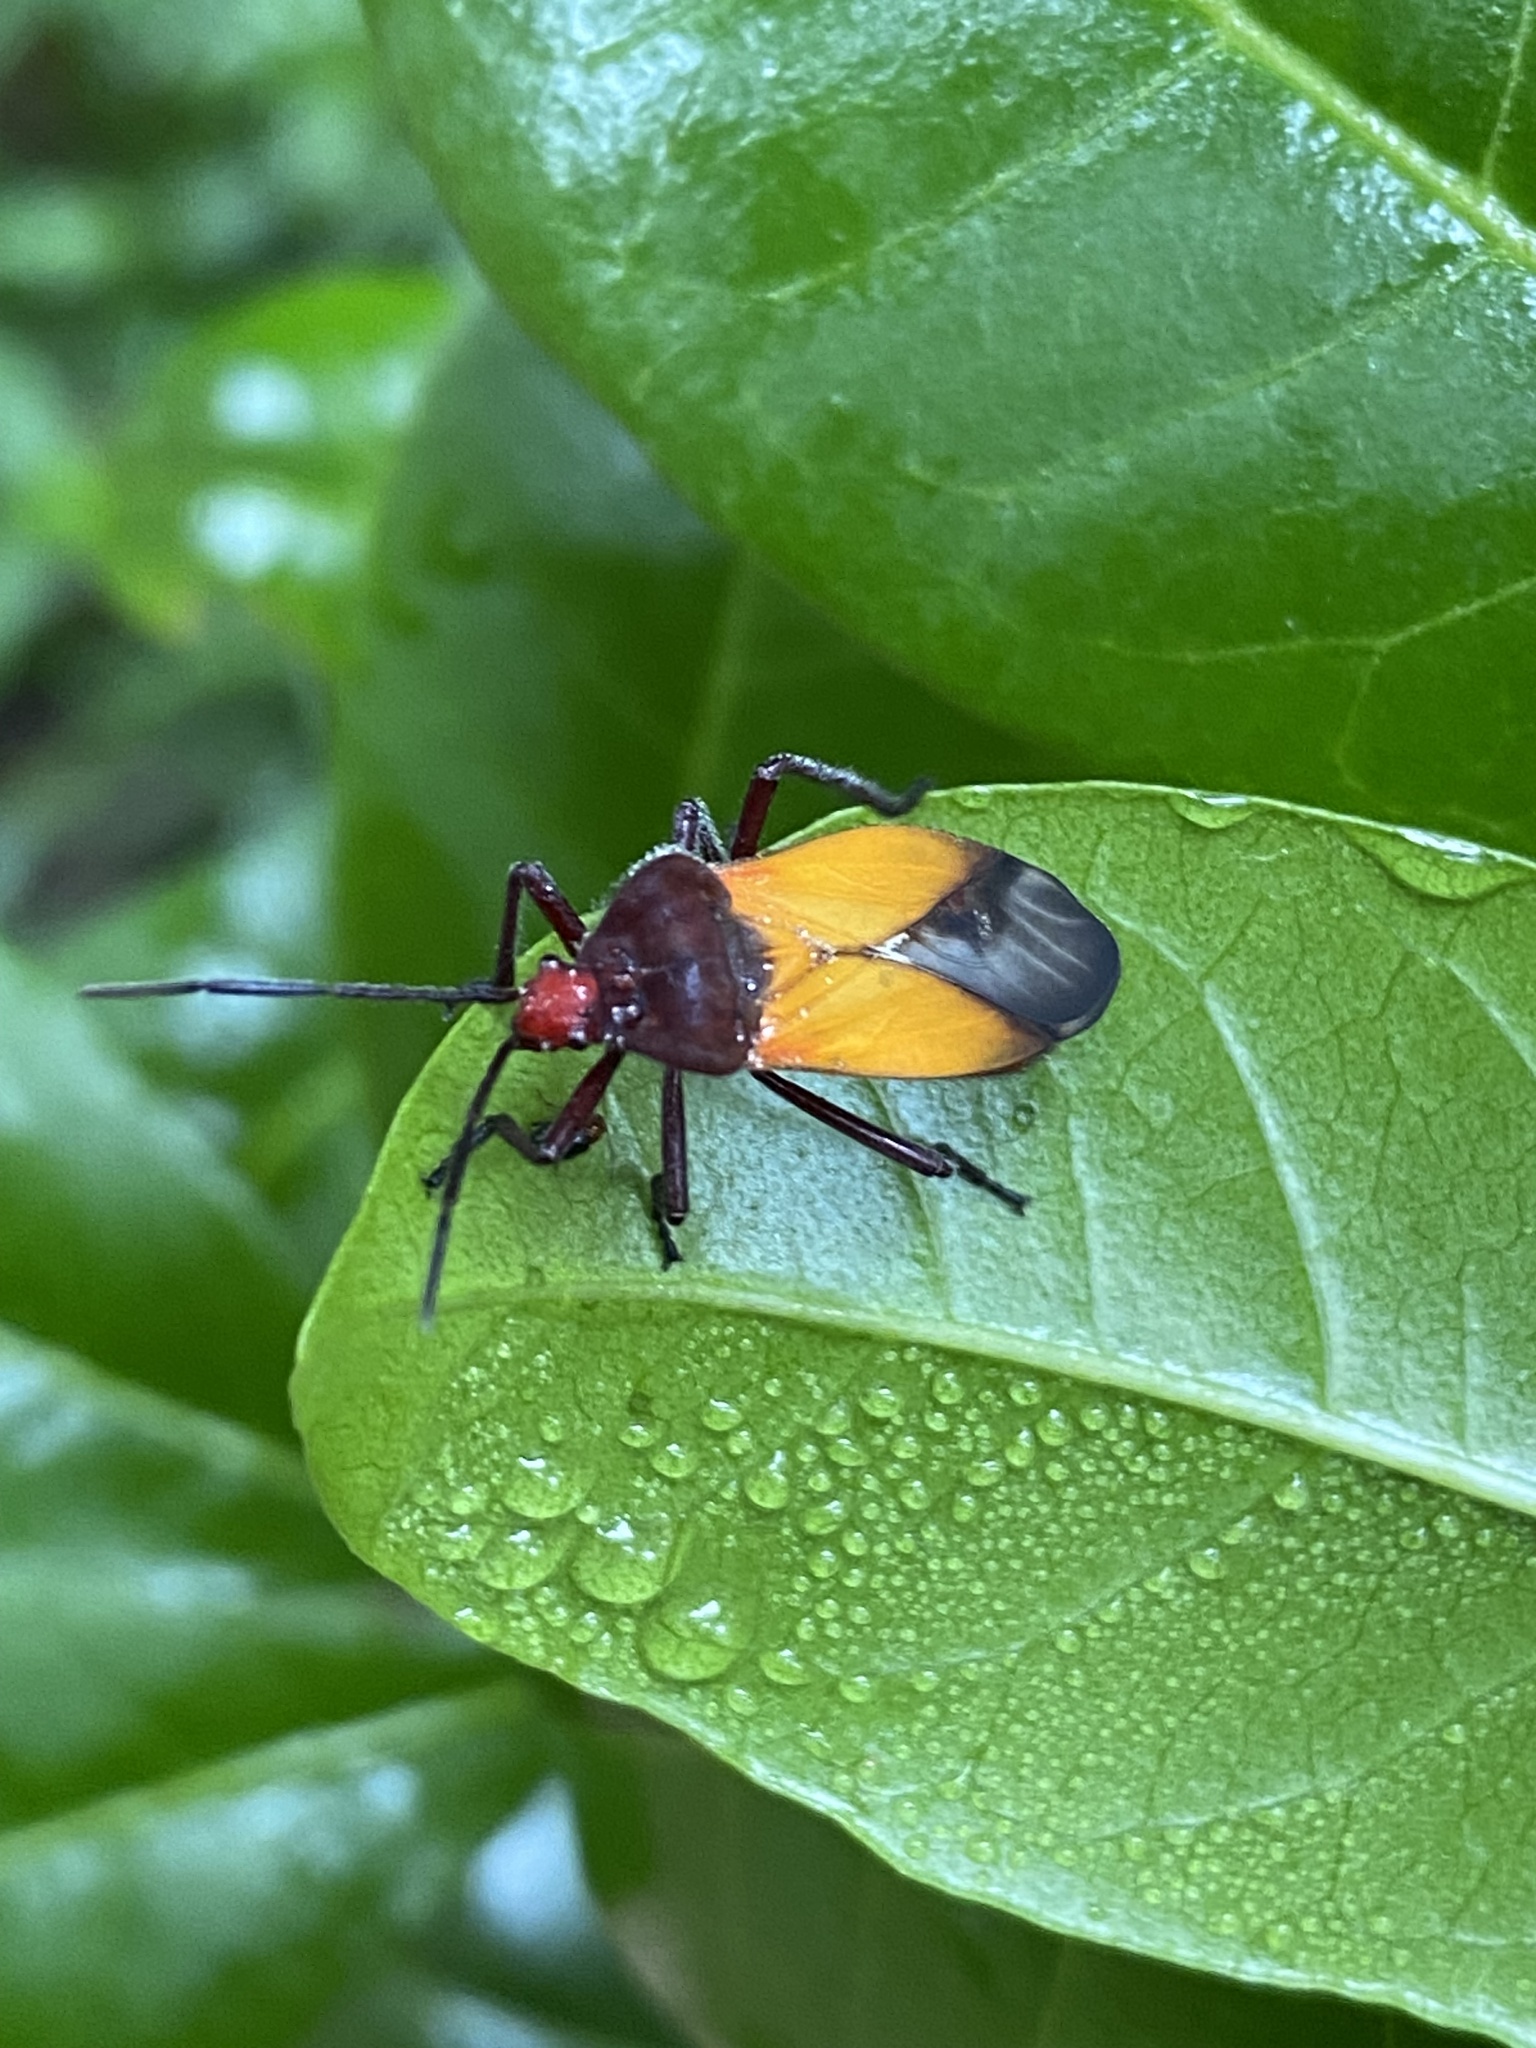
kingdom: Animalia
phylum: Arthropoda
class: Insecta
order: Hemiptera
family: Lygaeidae
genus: Oncopeltus
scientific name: Oncopeltus sordidus
